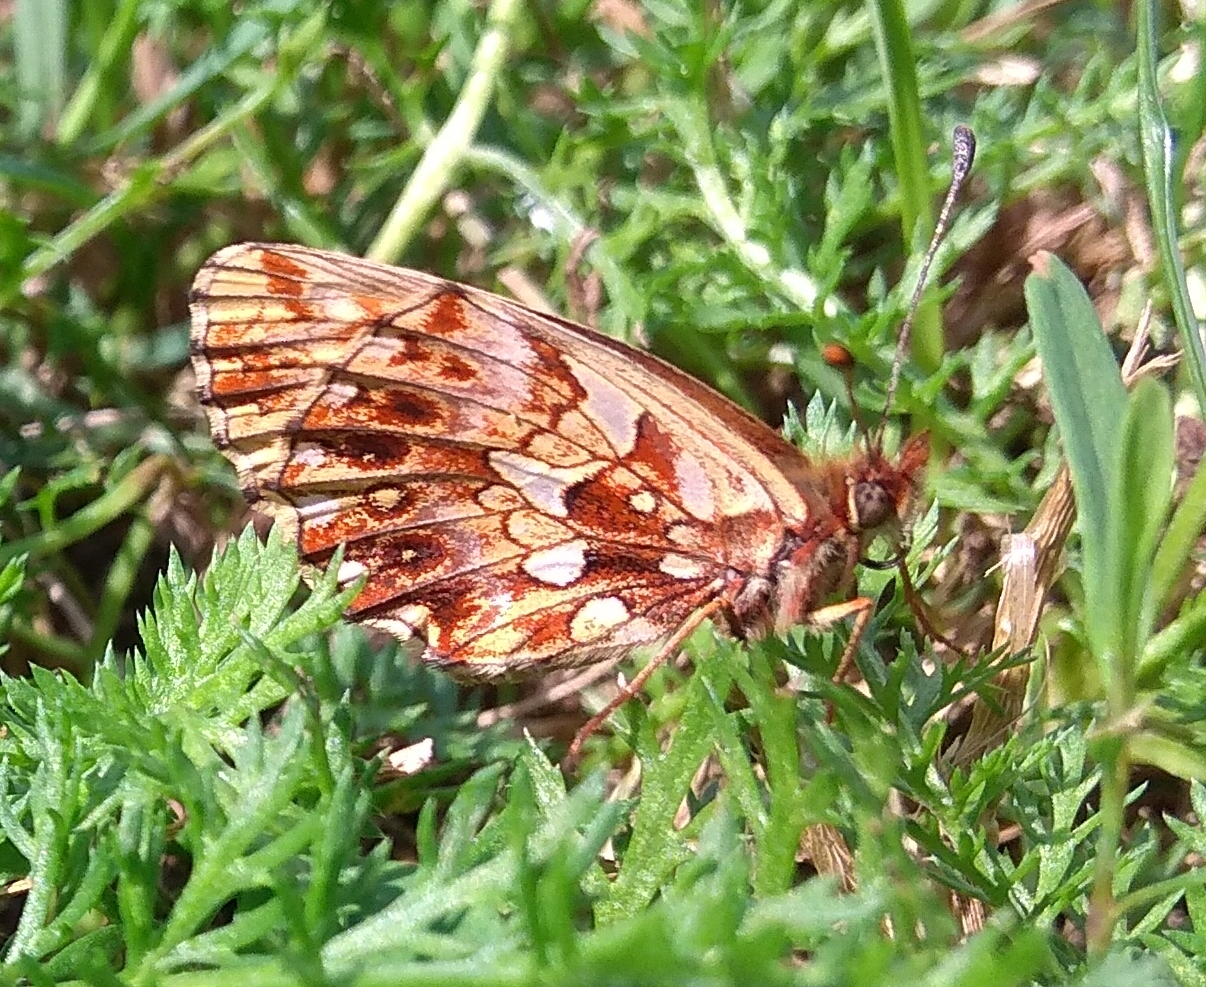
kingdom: Animalia
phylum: Arthropoda
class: Insecta
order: Lepidoptera
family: Nymphalidae
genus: Boloria
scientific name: Boloria dia
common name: Weaver's fritillary
